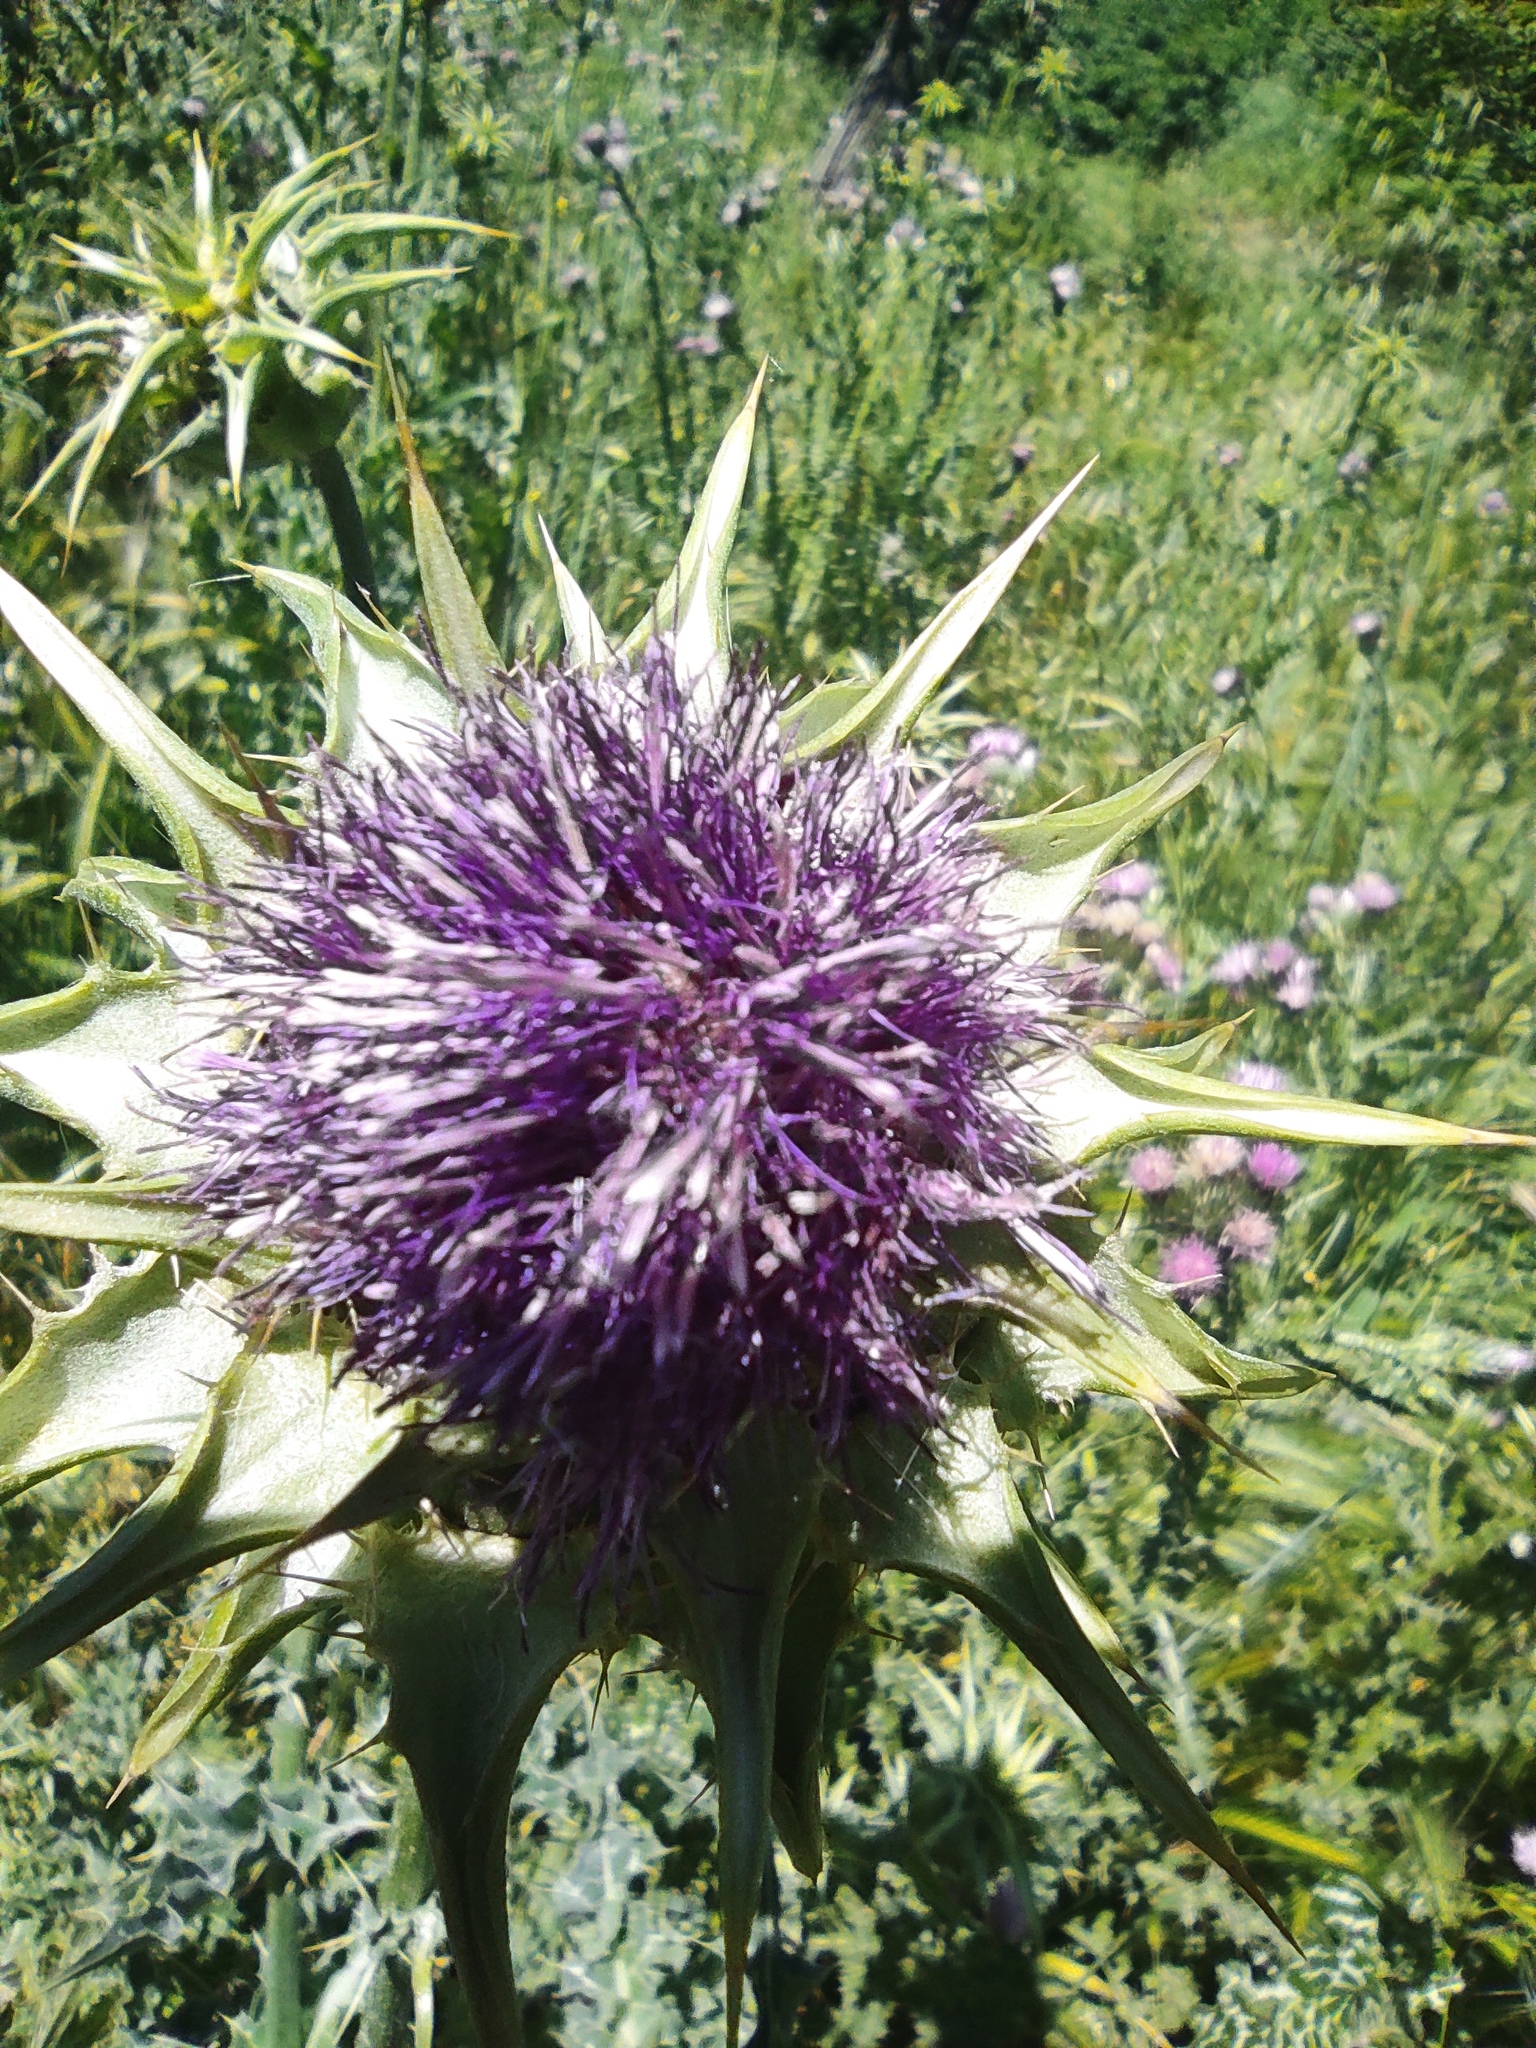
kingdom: Plantae
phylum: Tracheophyta
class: Magnoliopsida
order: Asterales
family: Asteraceae
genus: Silybum
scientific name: Silybum marianum
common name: Milk thistle
